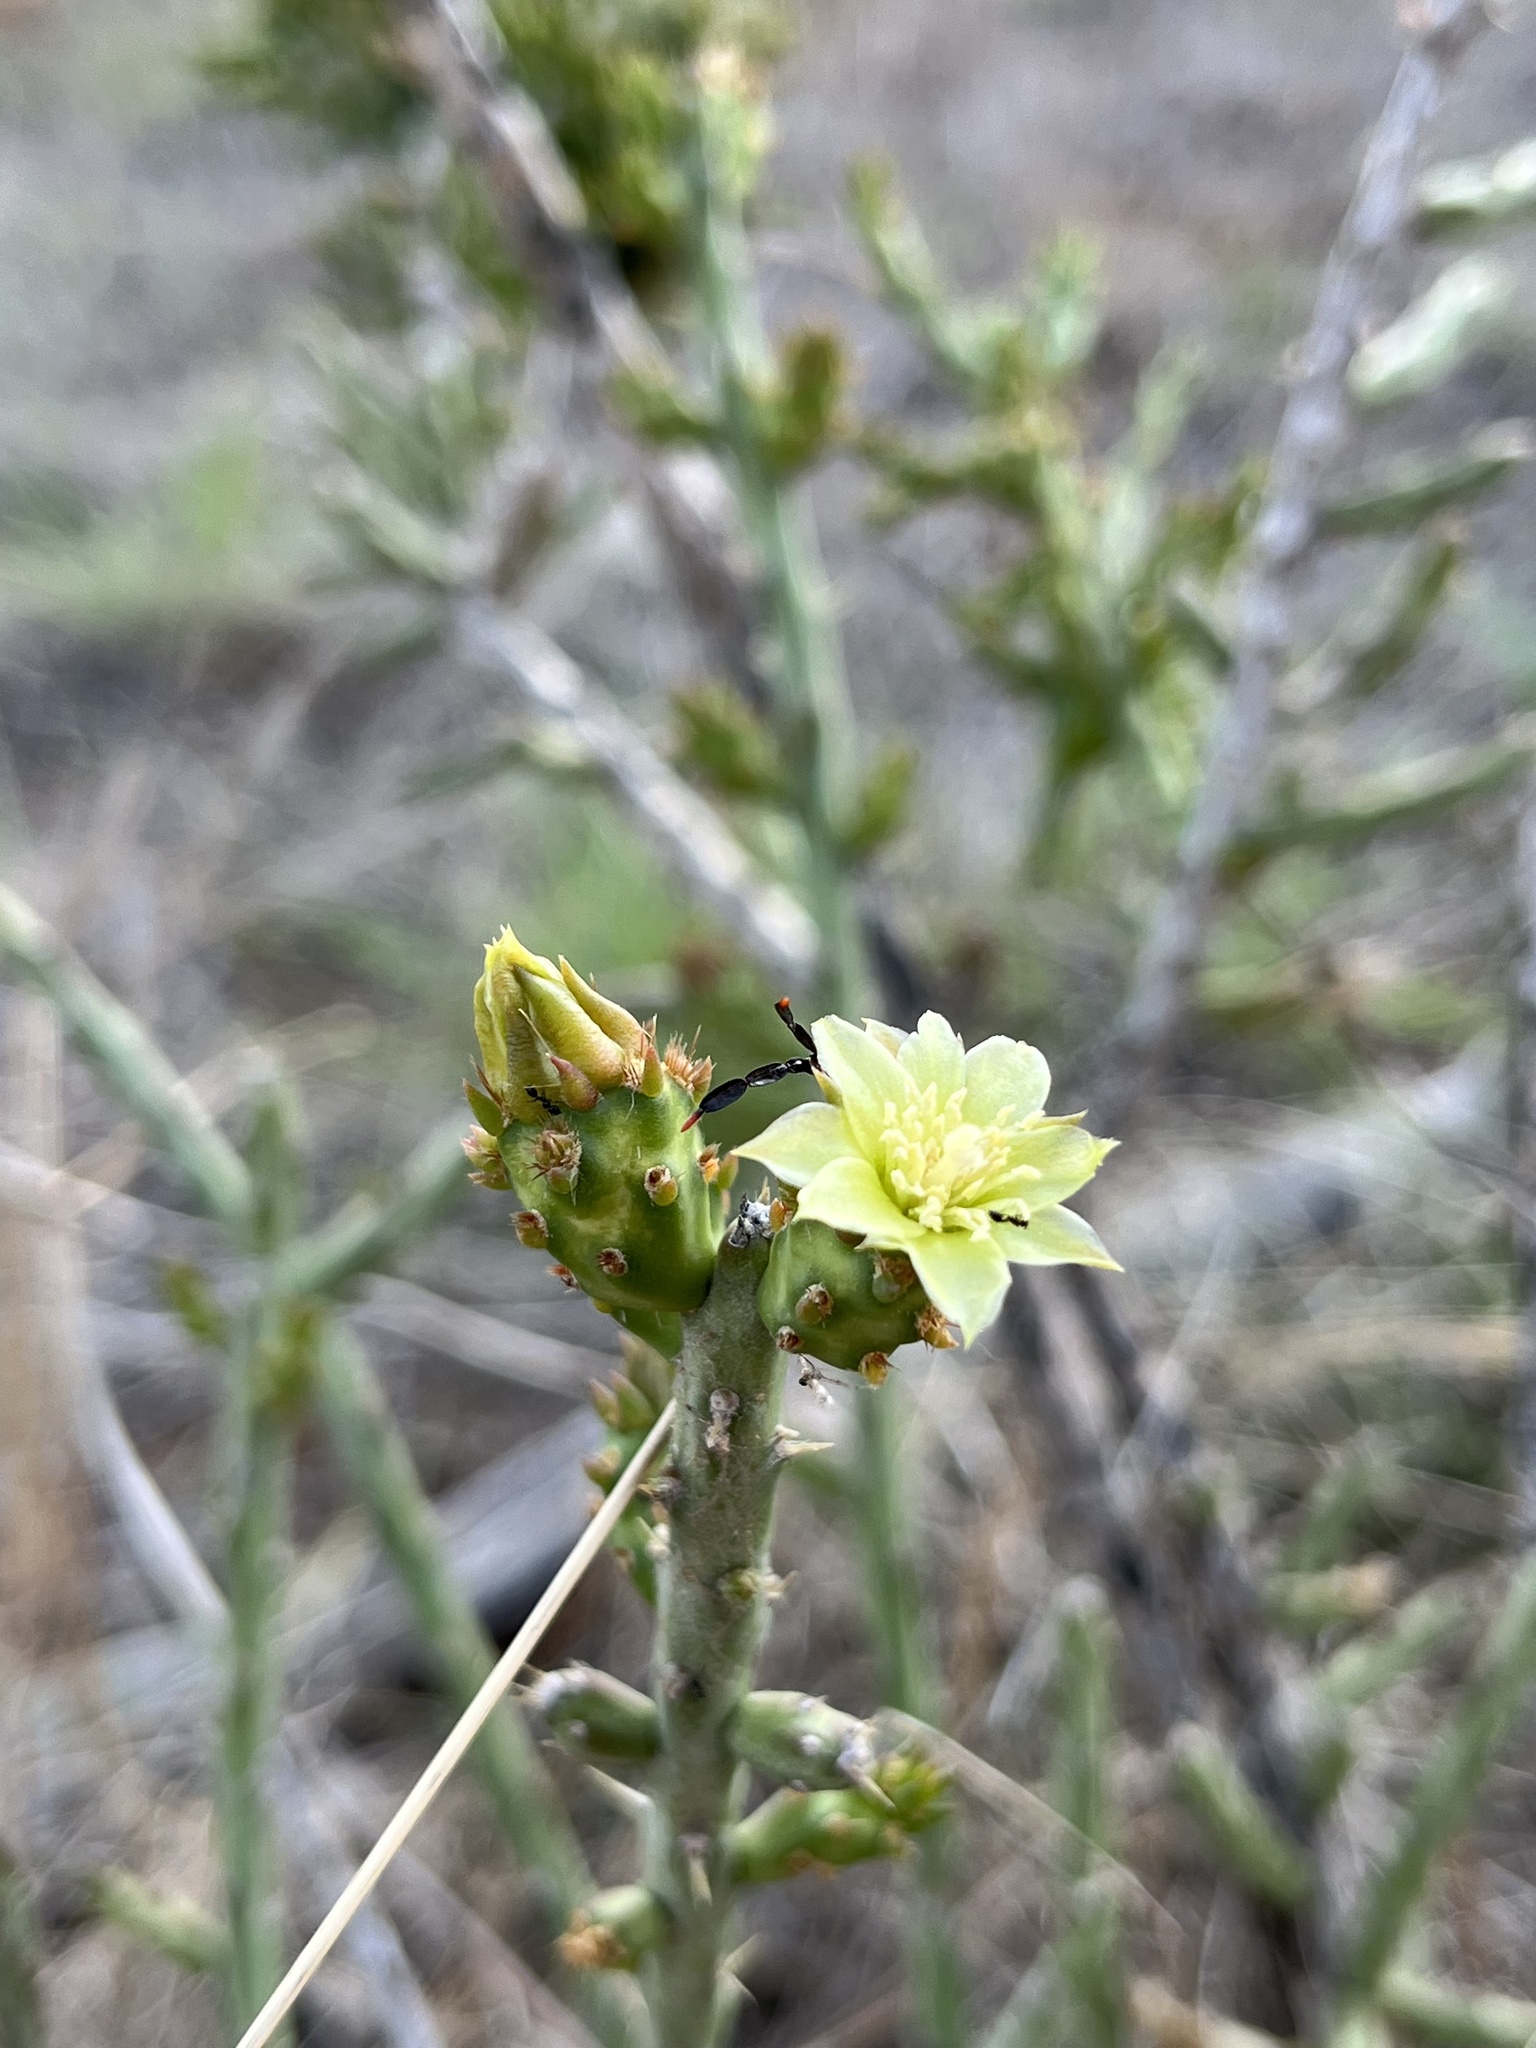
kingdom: Plantae
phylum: Tracheophyta
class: Magnoliopsida
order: Caryophyllales
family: Cactaceae
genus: Cylindropuntia
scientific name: Cylindropuntia leptocaulis
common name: Christmas cactus
